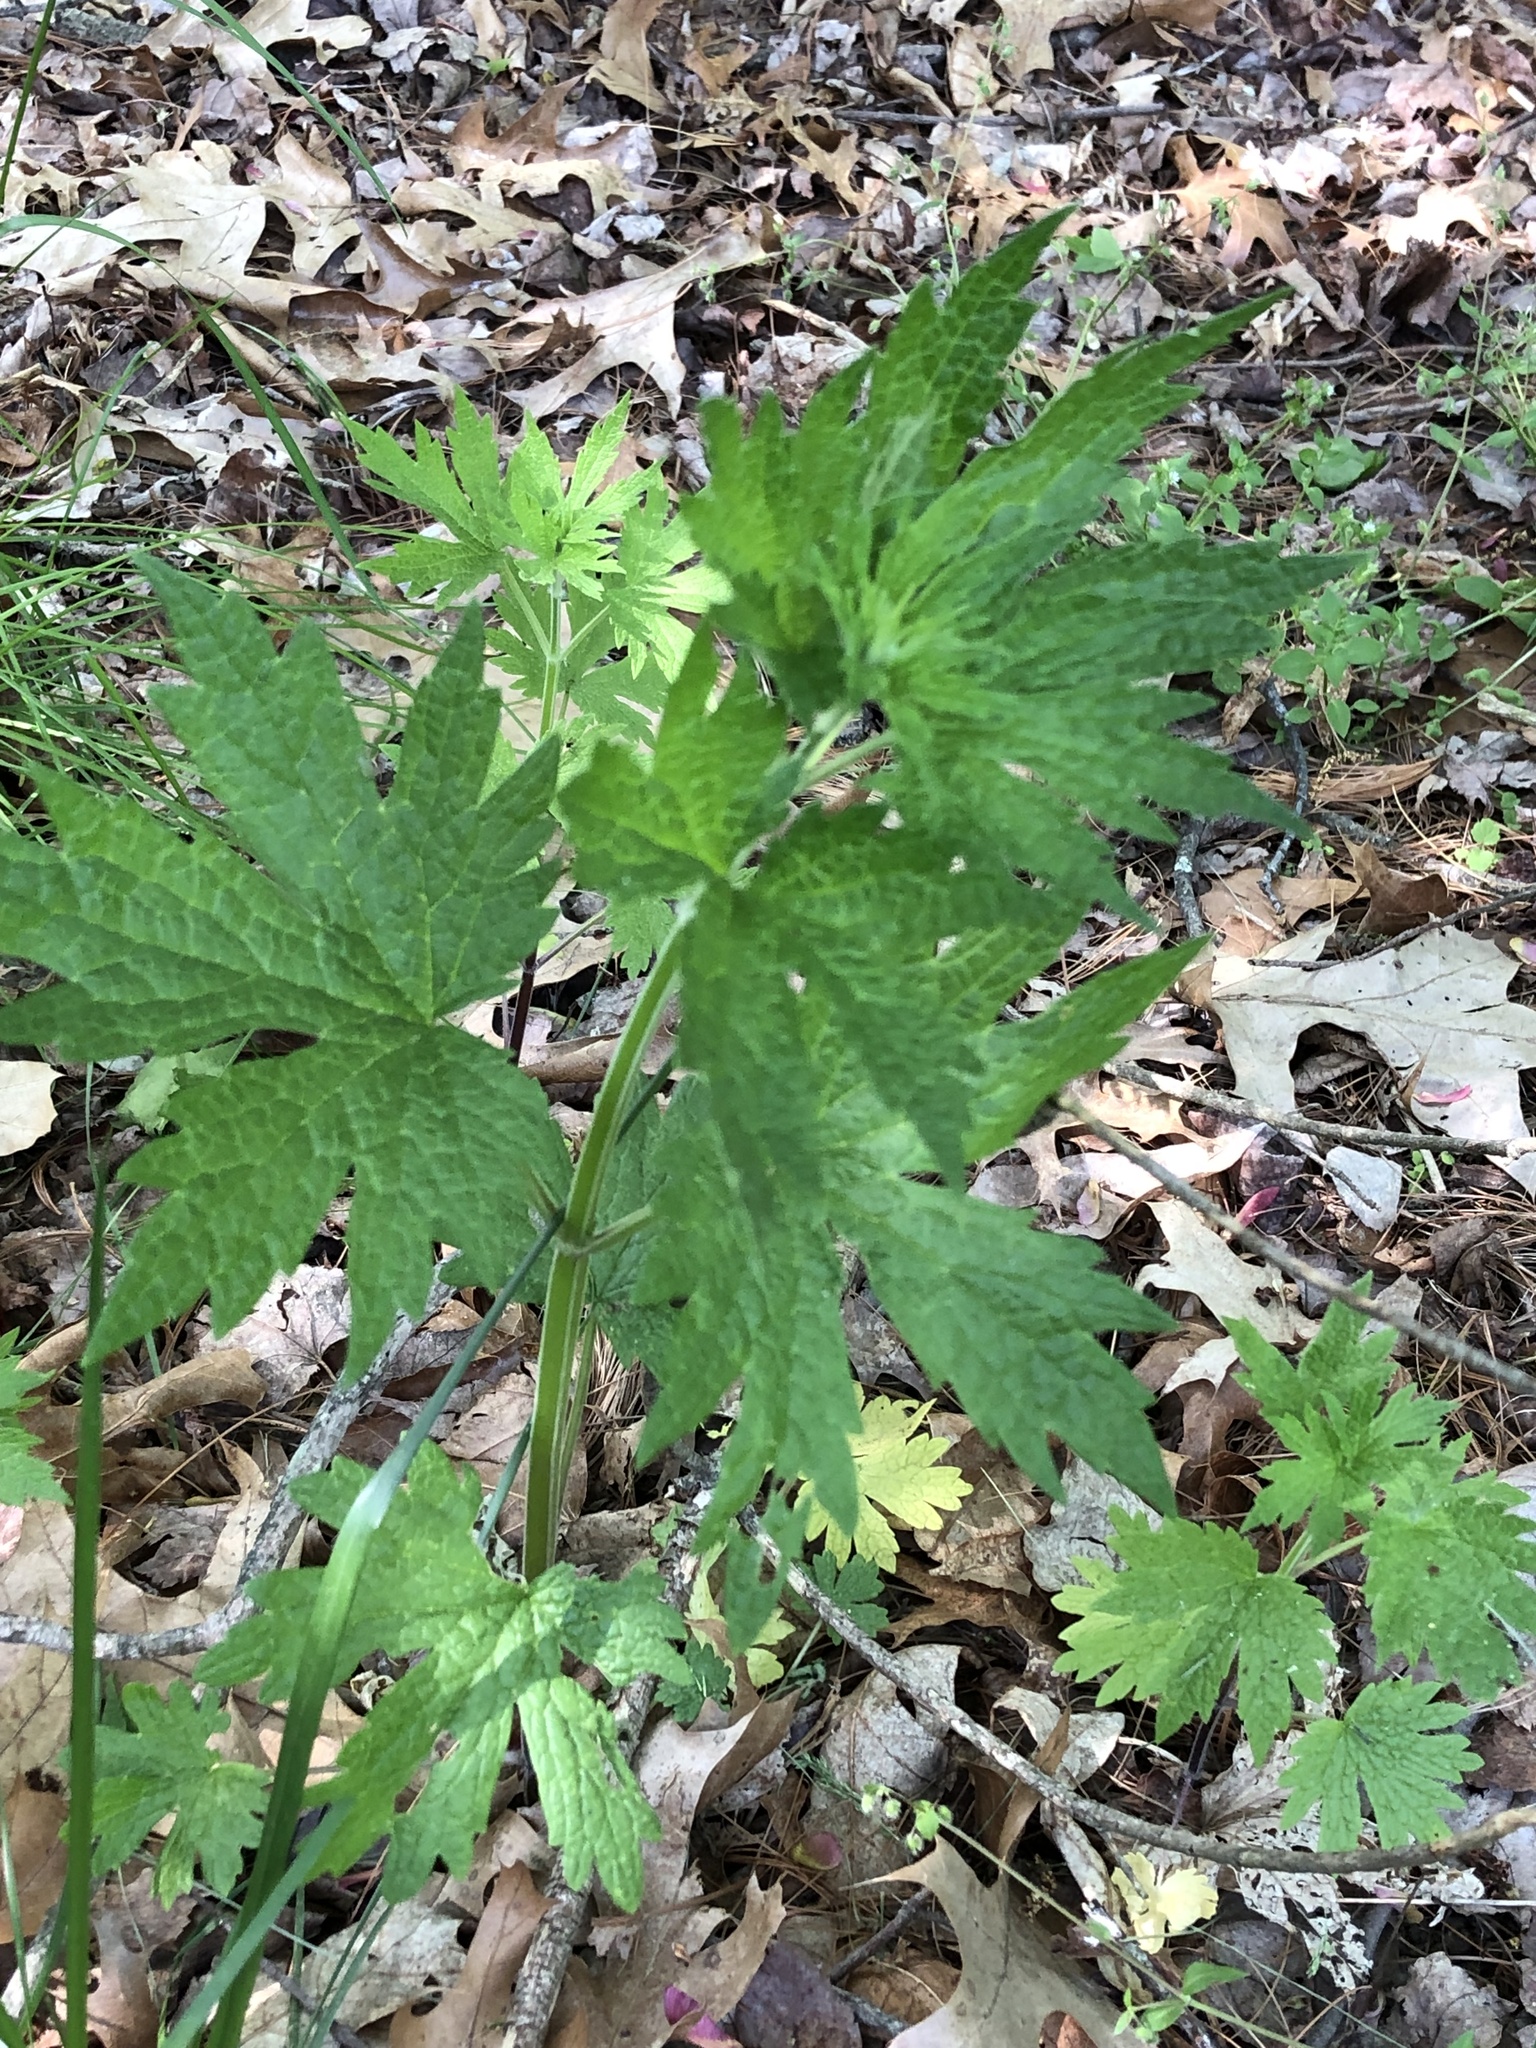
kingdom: Plantae
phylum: Tracheophyta
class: Magnoliopsida
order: Lamiales
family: Lamiaceae
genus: Leonurus
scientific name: Leonurus cardiaca
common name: Motherwort
